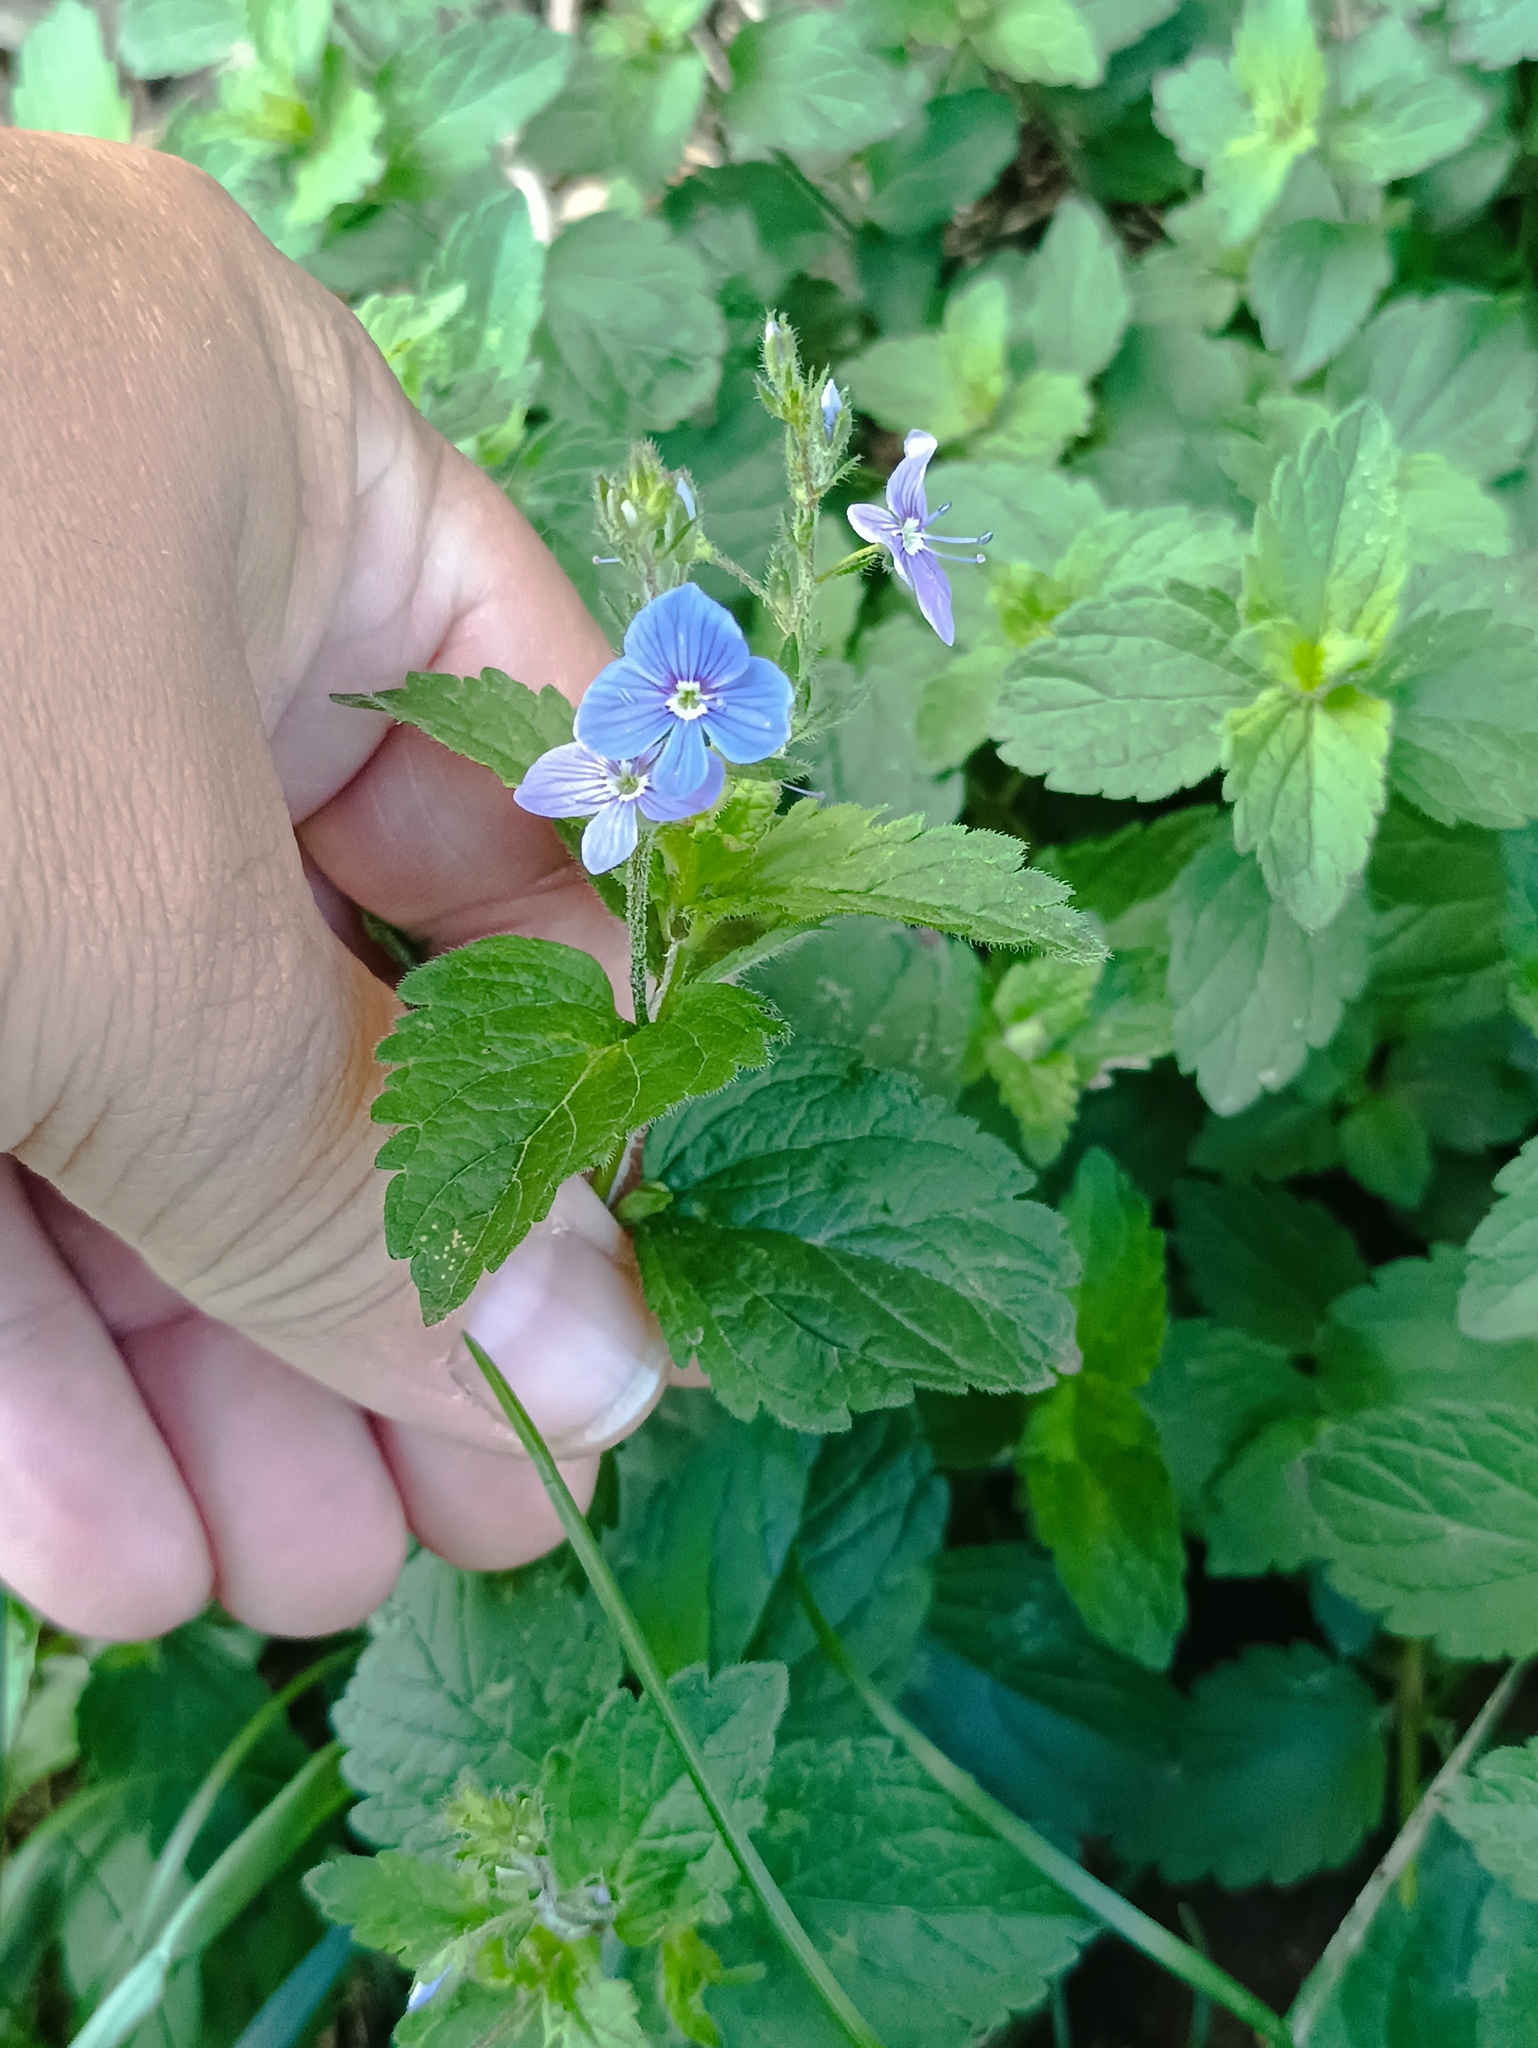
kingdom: Plantae
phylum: Tracheophyta
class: Magnoliopsida
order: Lamiales
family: Plantaginaceae
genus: Veronica
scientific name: Veronica chamaedrys
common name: Germander speedwell
